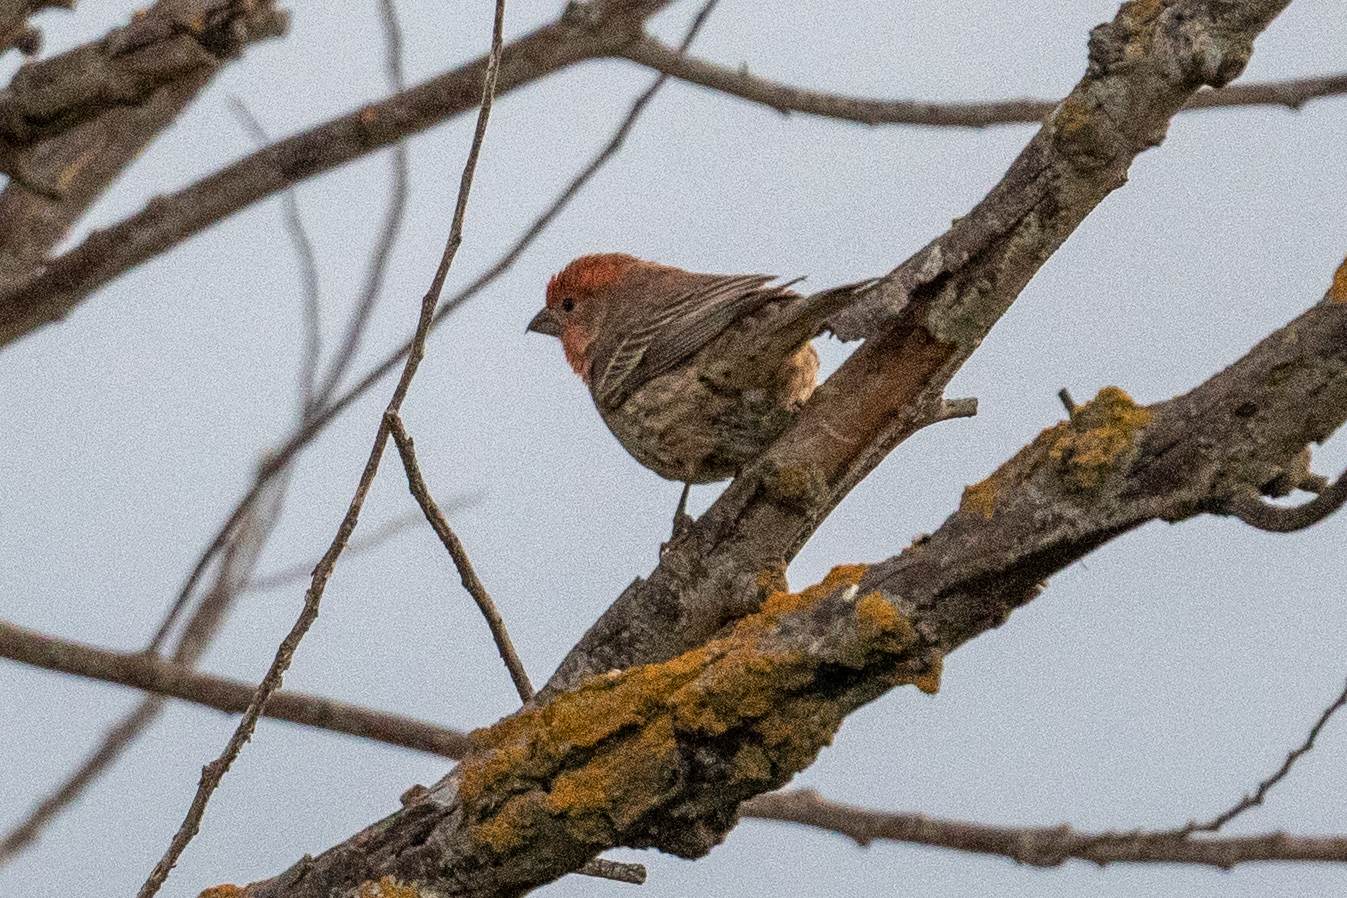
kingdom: Animalia
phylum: Chordata
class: Aves
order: Passeriformes
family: Fringillidae
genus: Haemorhous
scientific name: Haemorhous mexicanus
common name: House finch
